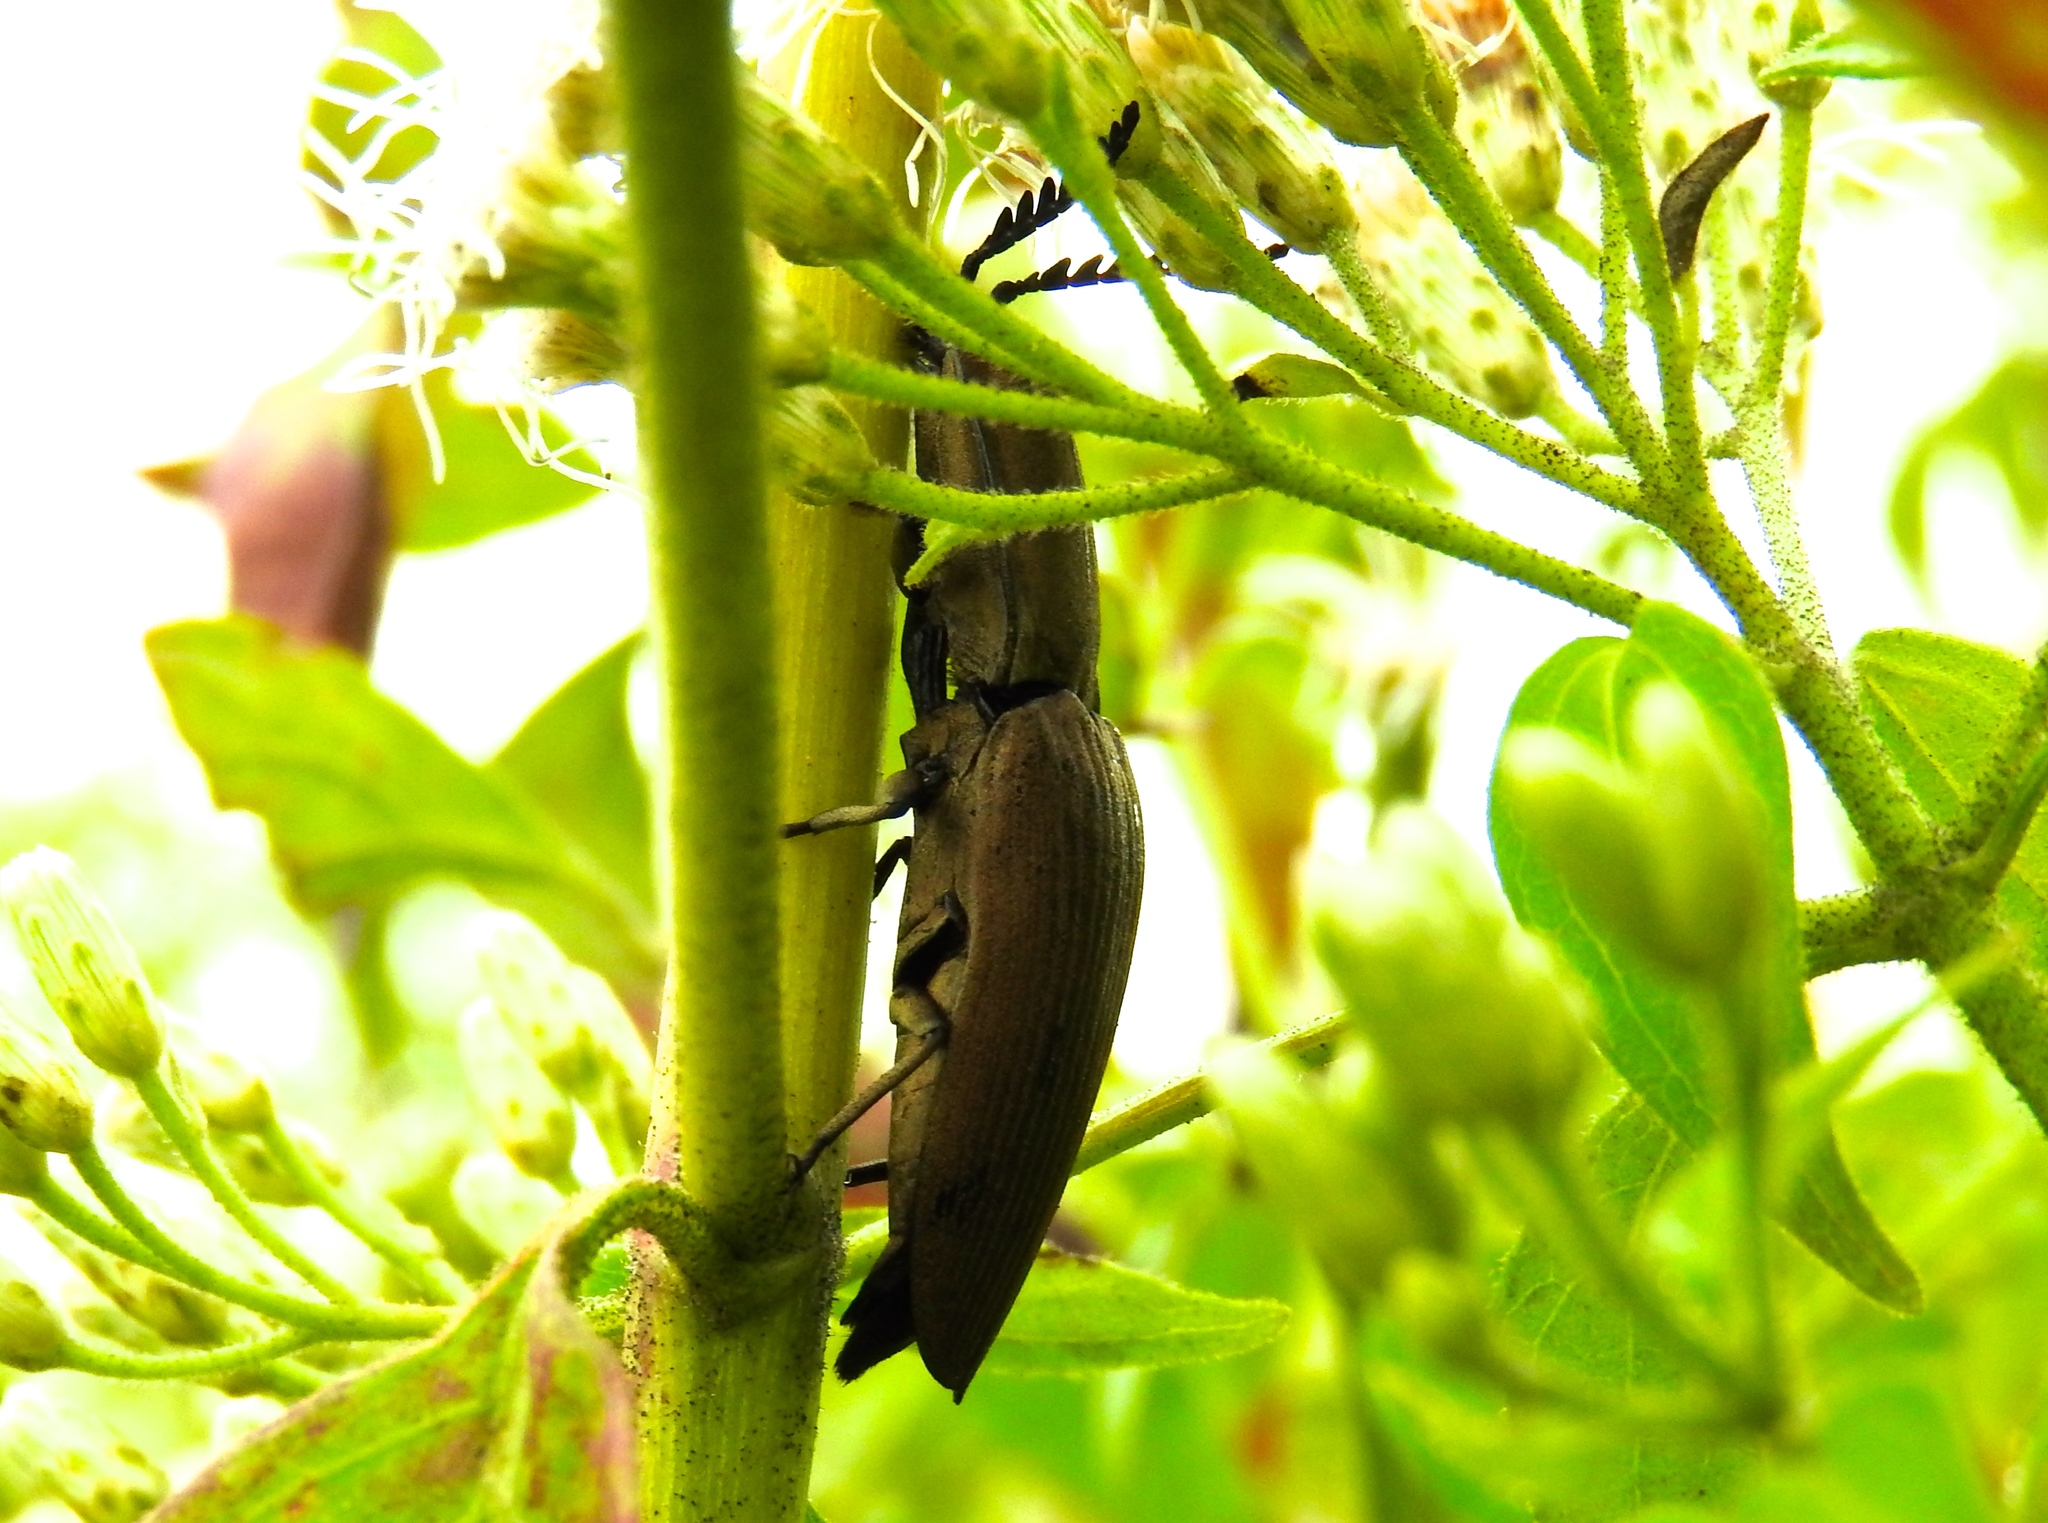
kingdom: Animalia
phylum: Arthropoda
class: Insecta
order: Coleoptera
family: Elateridae
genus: Chalcolepidius
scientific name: Chalcolepidius
